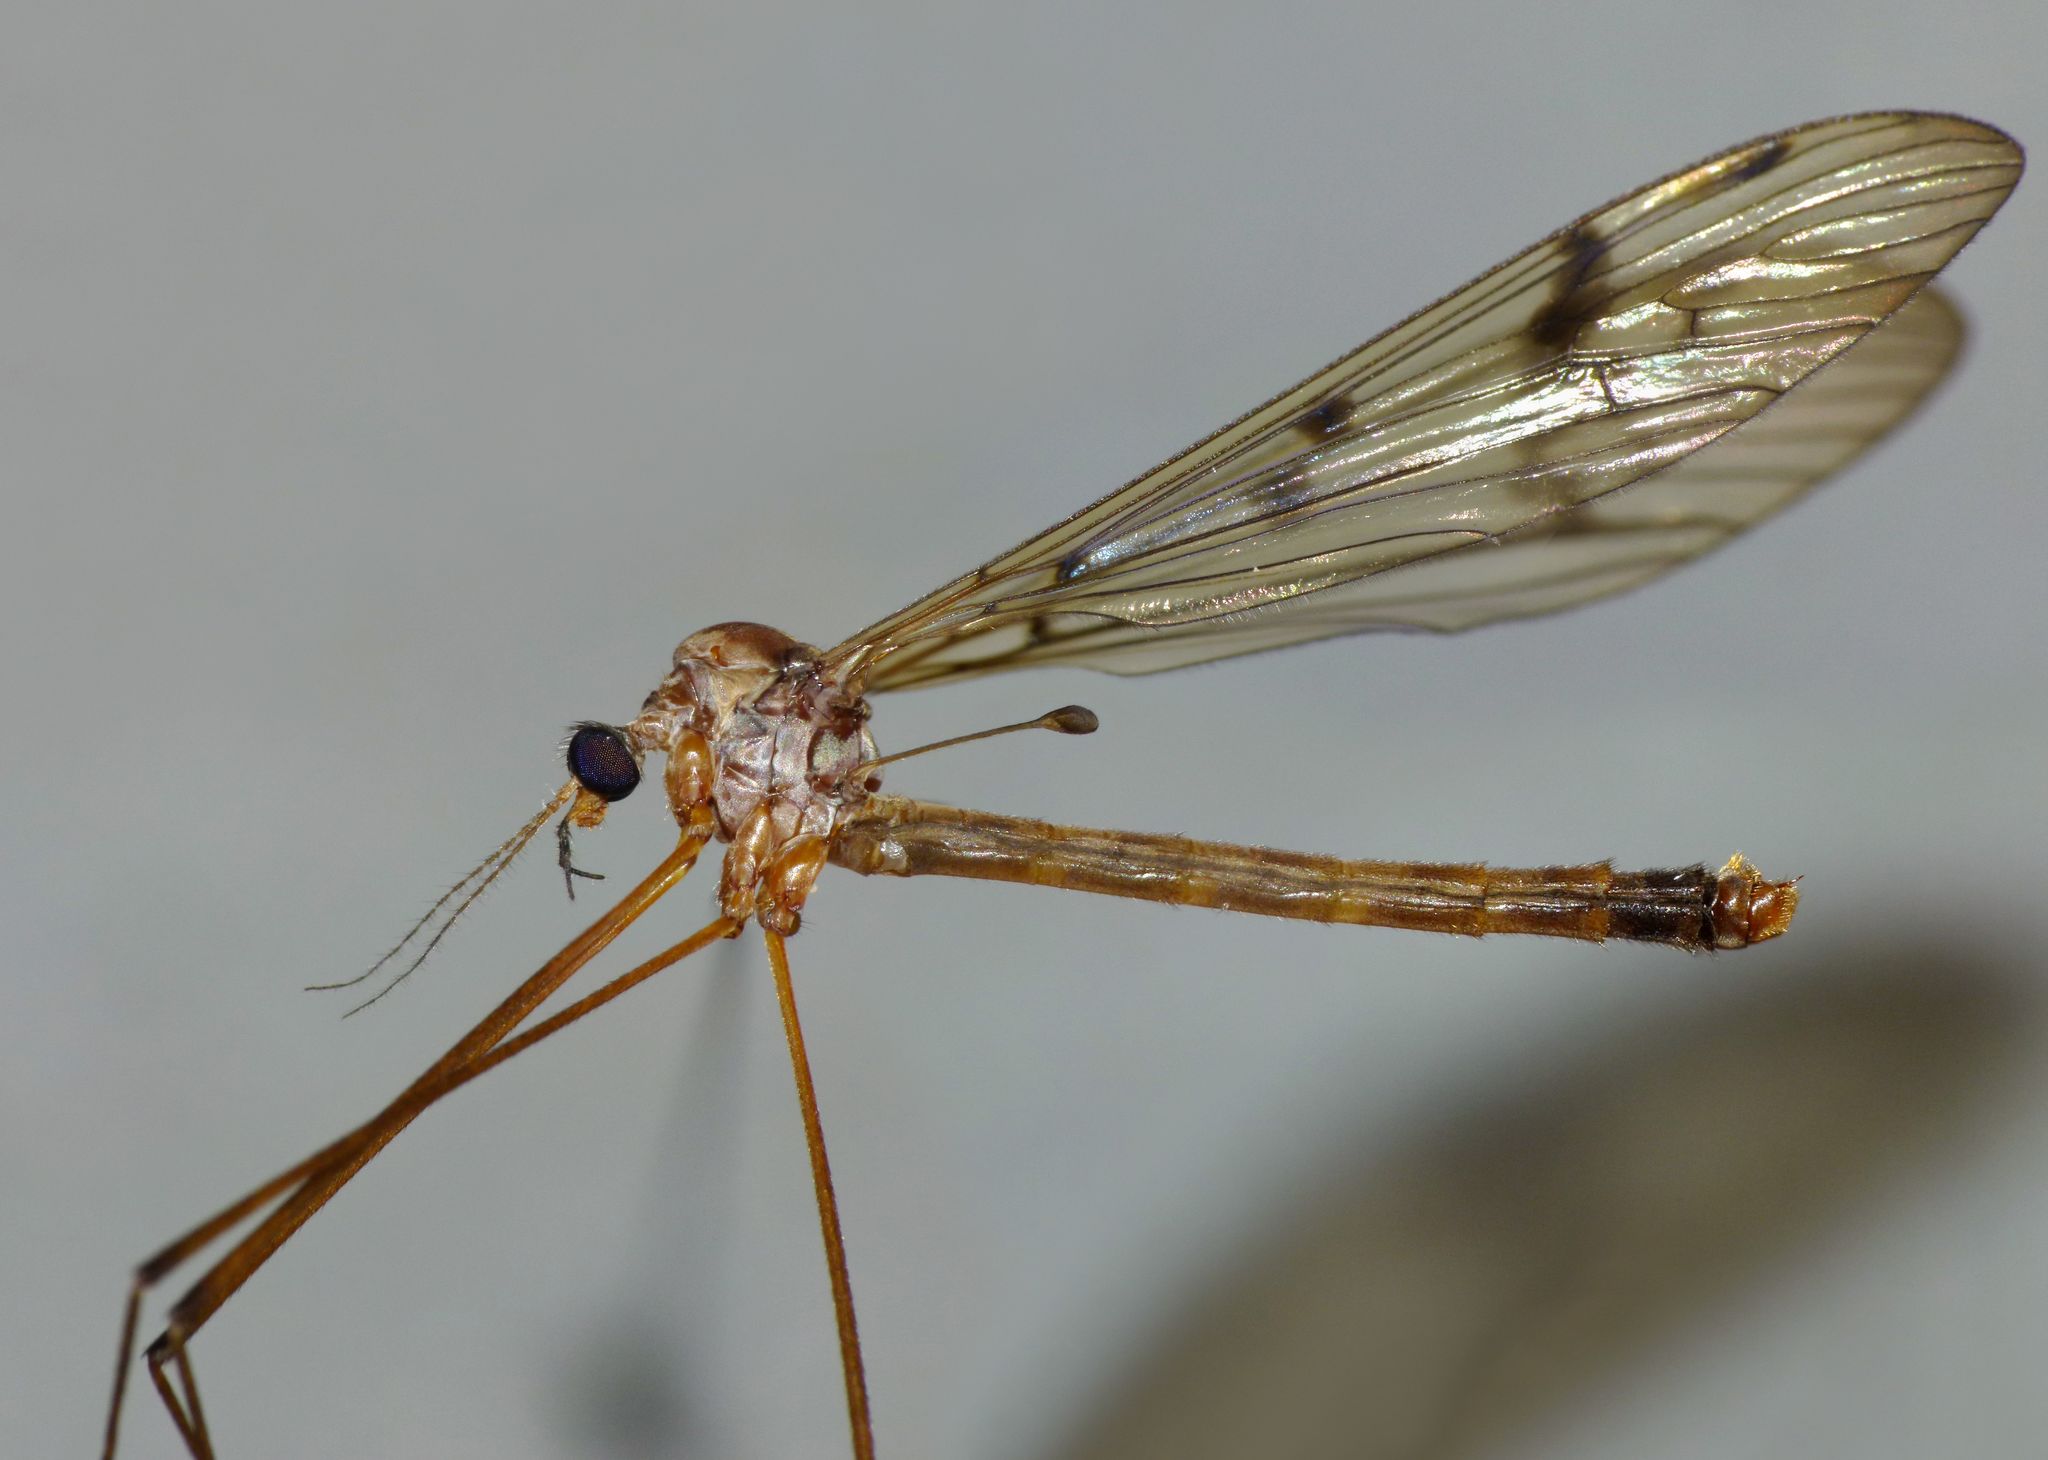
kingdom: Animalia
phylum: Arthropoda
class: Insecta
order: Diptera
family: Limoniidae
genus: Limnophilella
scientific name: Limnophilella serotina
